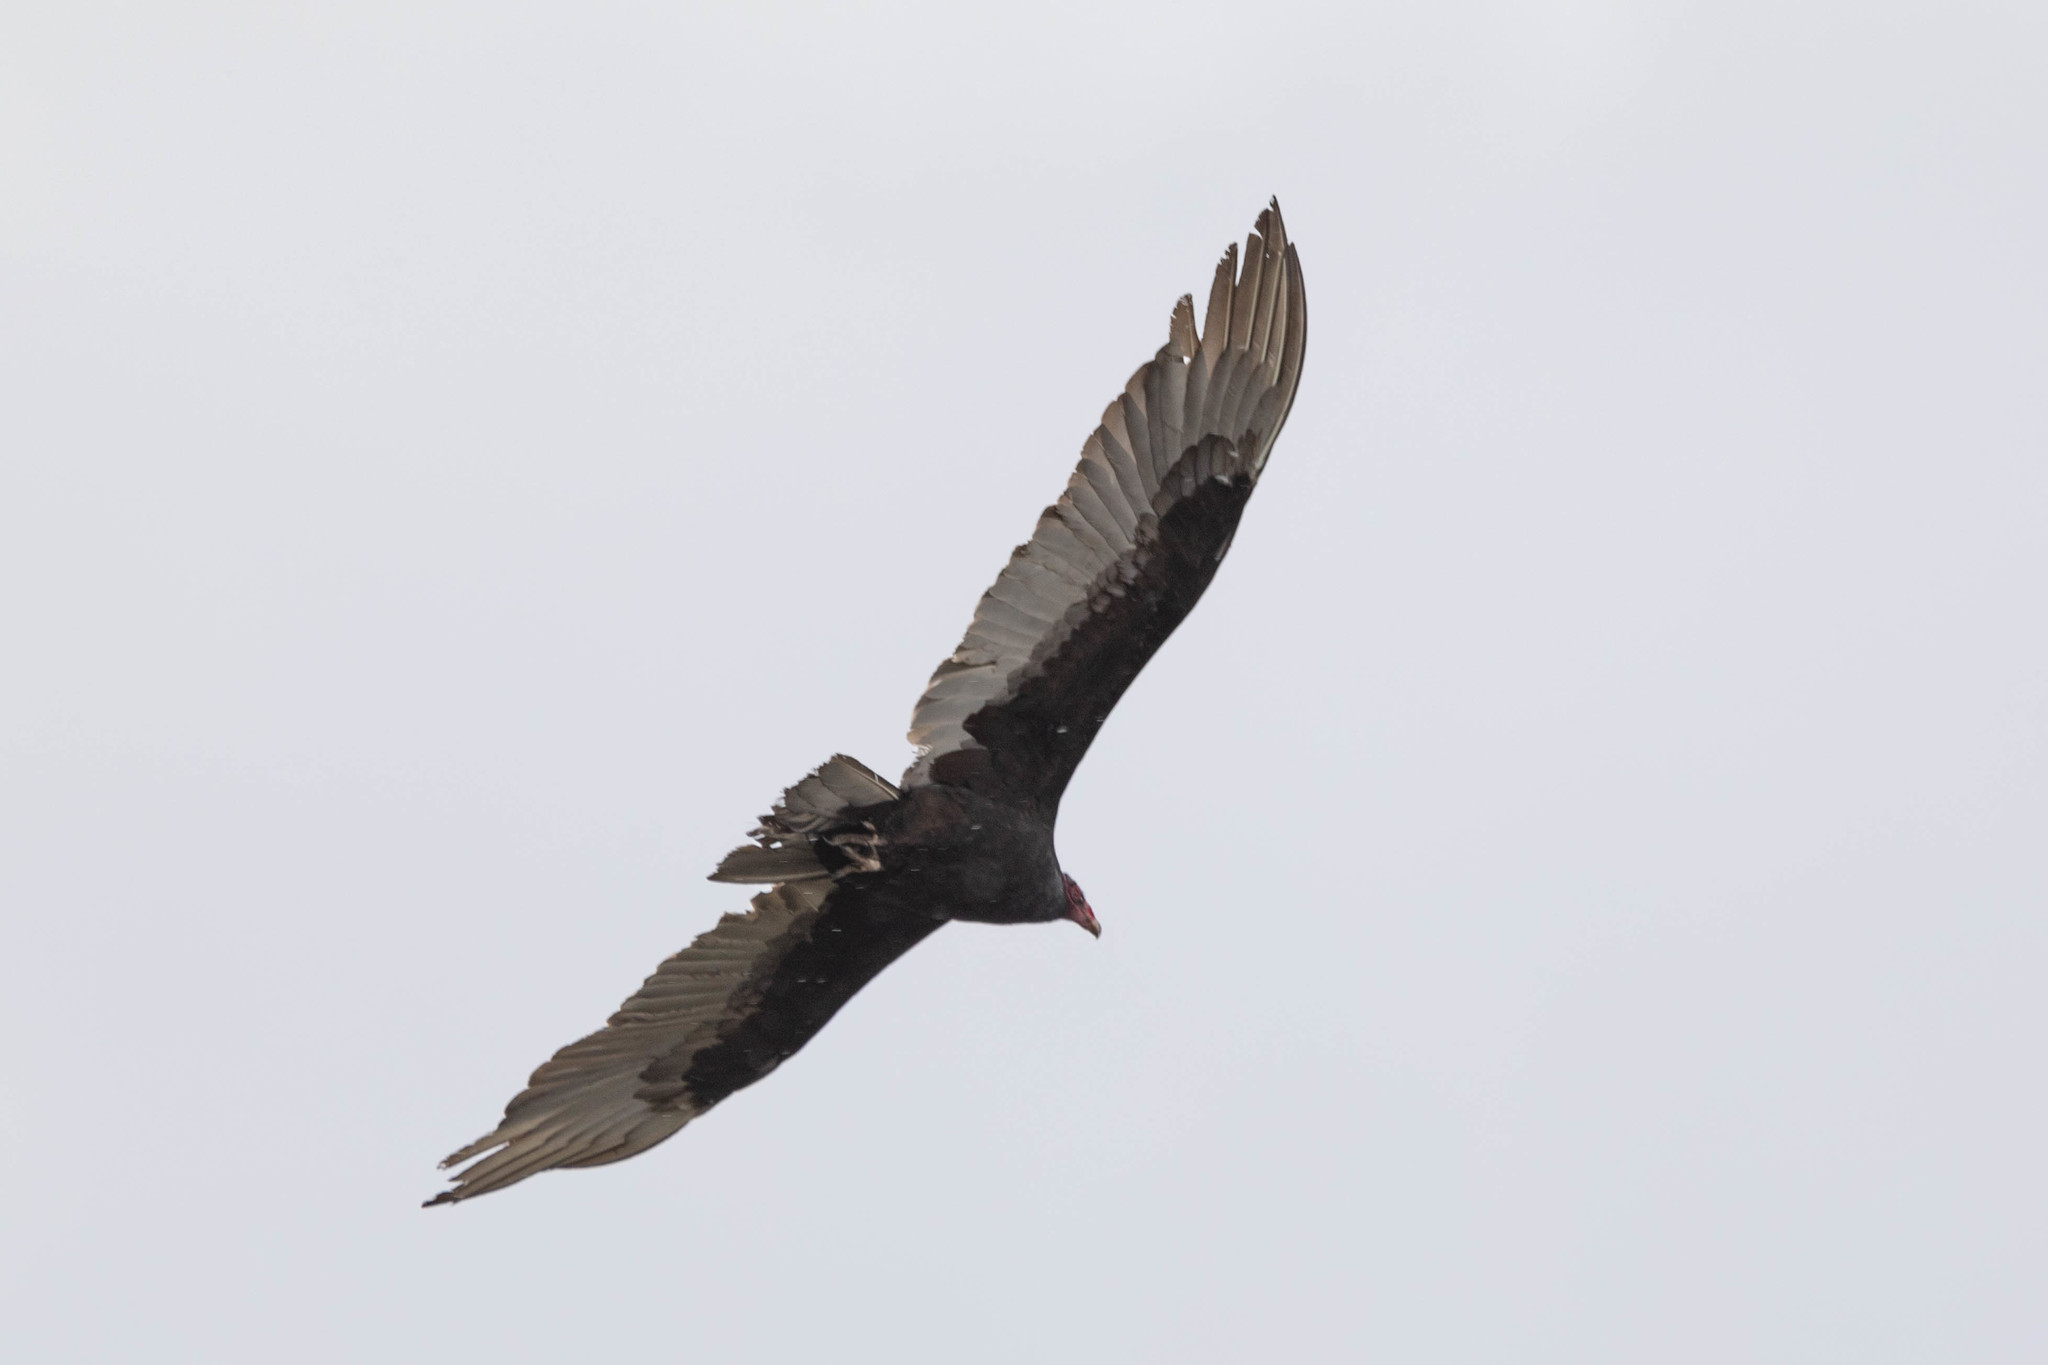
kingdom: Animalia
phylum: Chordata
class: Aves
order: Accipitriformes
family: Cathartidae
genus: Cathartes
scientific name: Cathartes aura
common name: Turkey vulture
